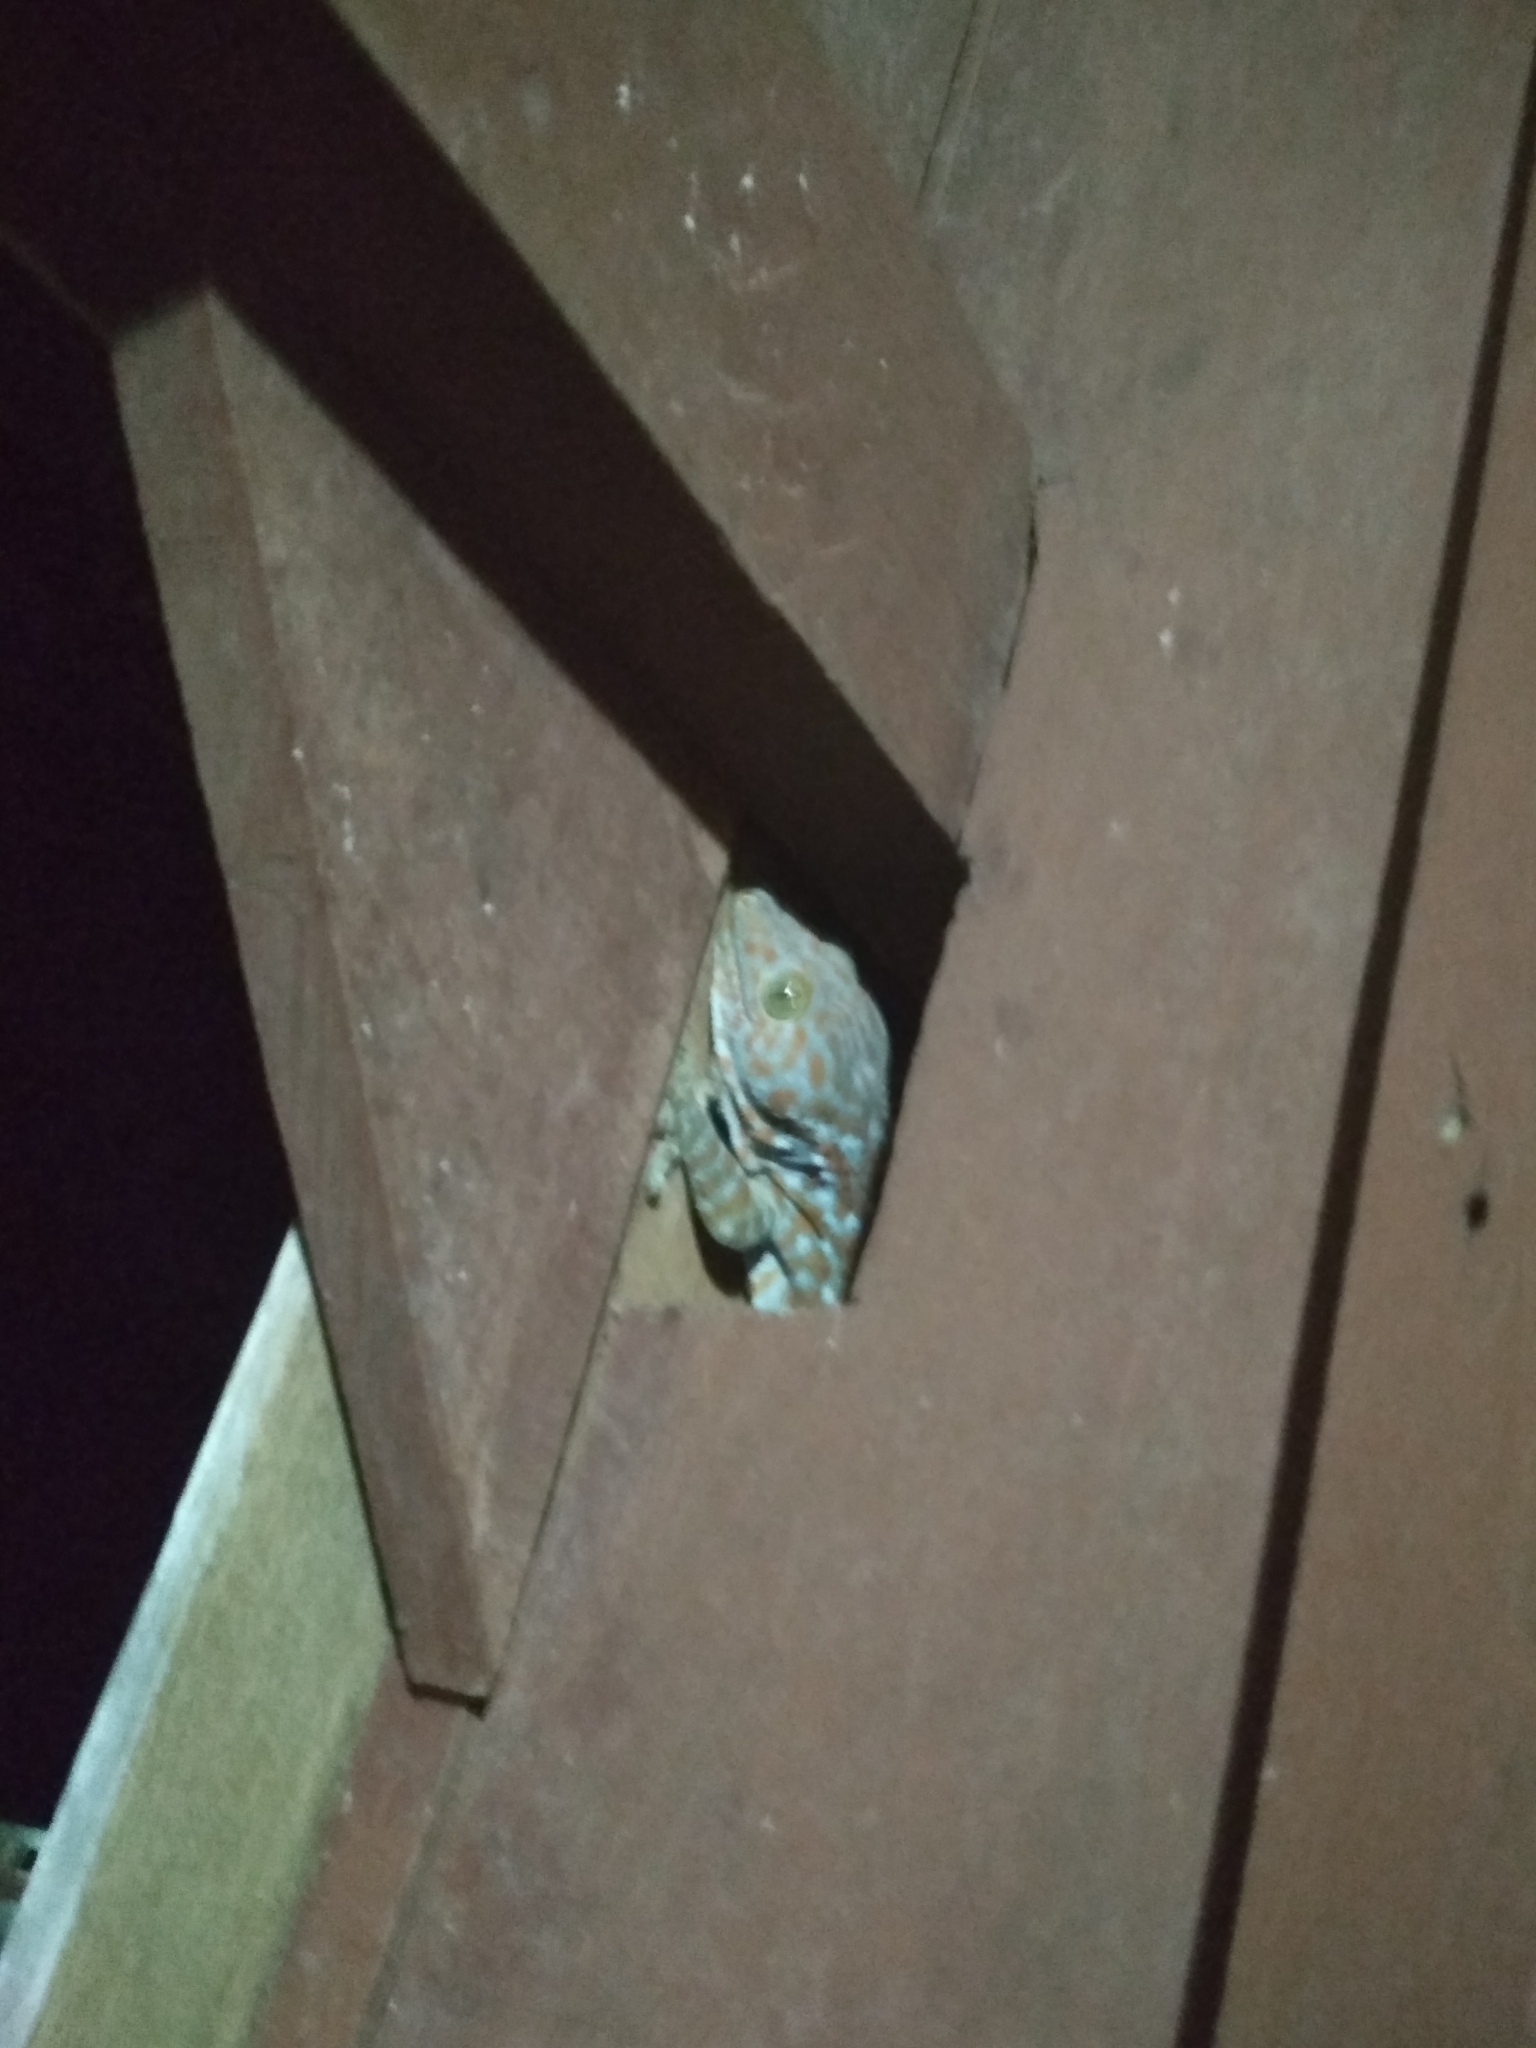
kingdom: Animalia
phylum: Chordata
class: Squamata
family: Gekkonidae
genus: Gekko
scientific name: Gekko gecko
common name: Tokay gecko
